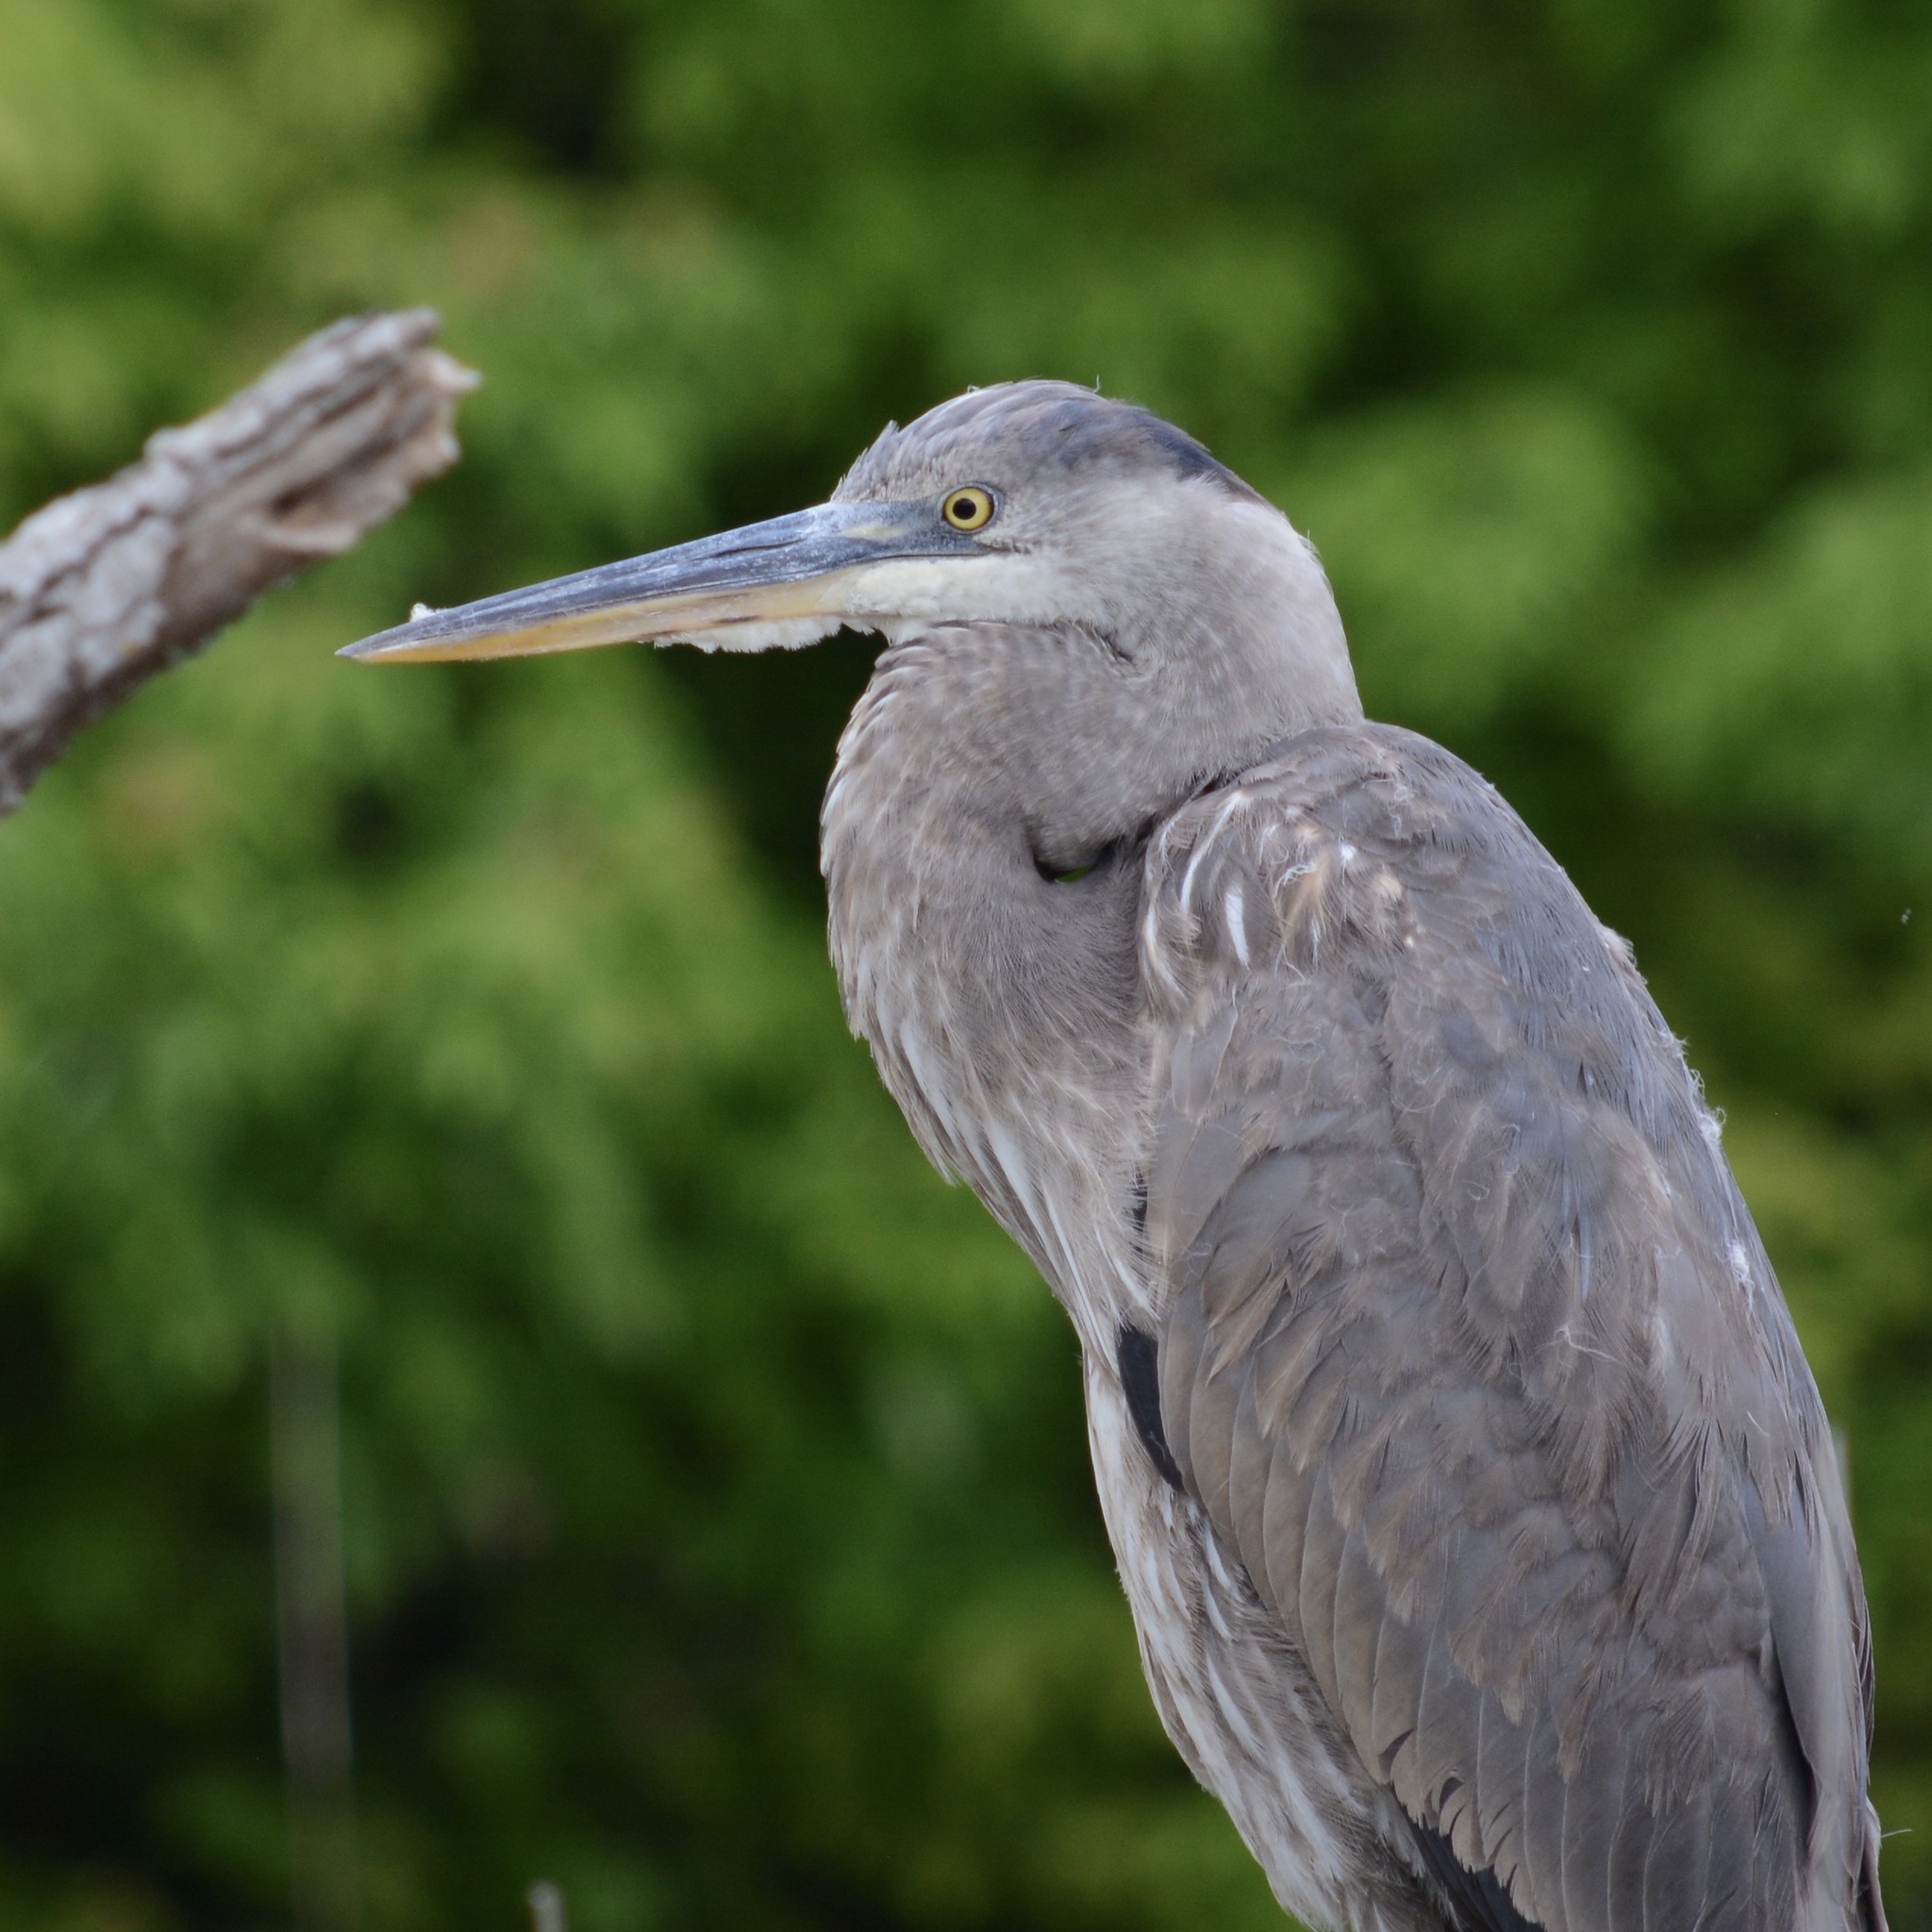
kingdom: Animalia
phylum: Chordata
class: Aves
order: Pelecaniformes
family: Ardeidae
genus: Ardea
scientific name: Ardea herodias
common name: Great blue heron
